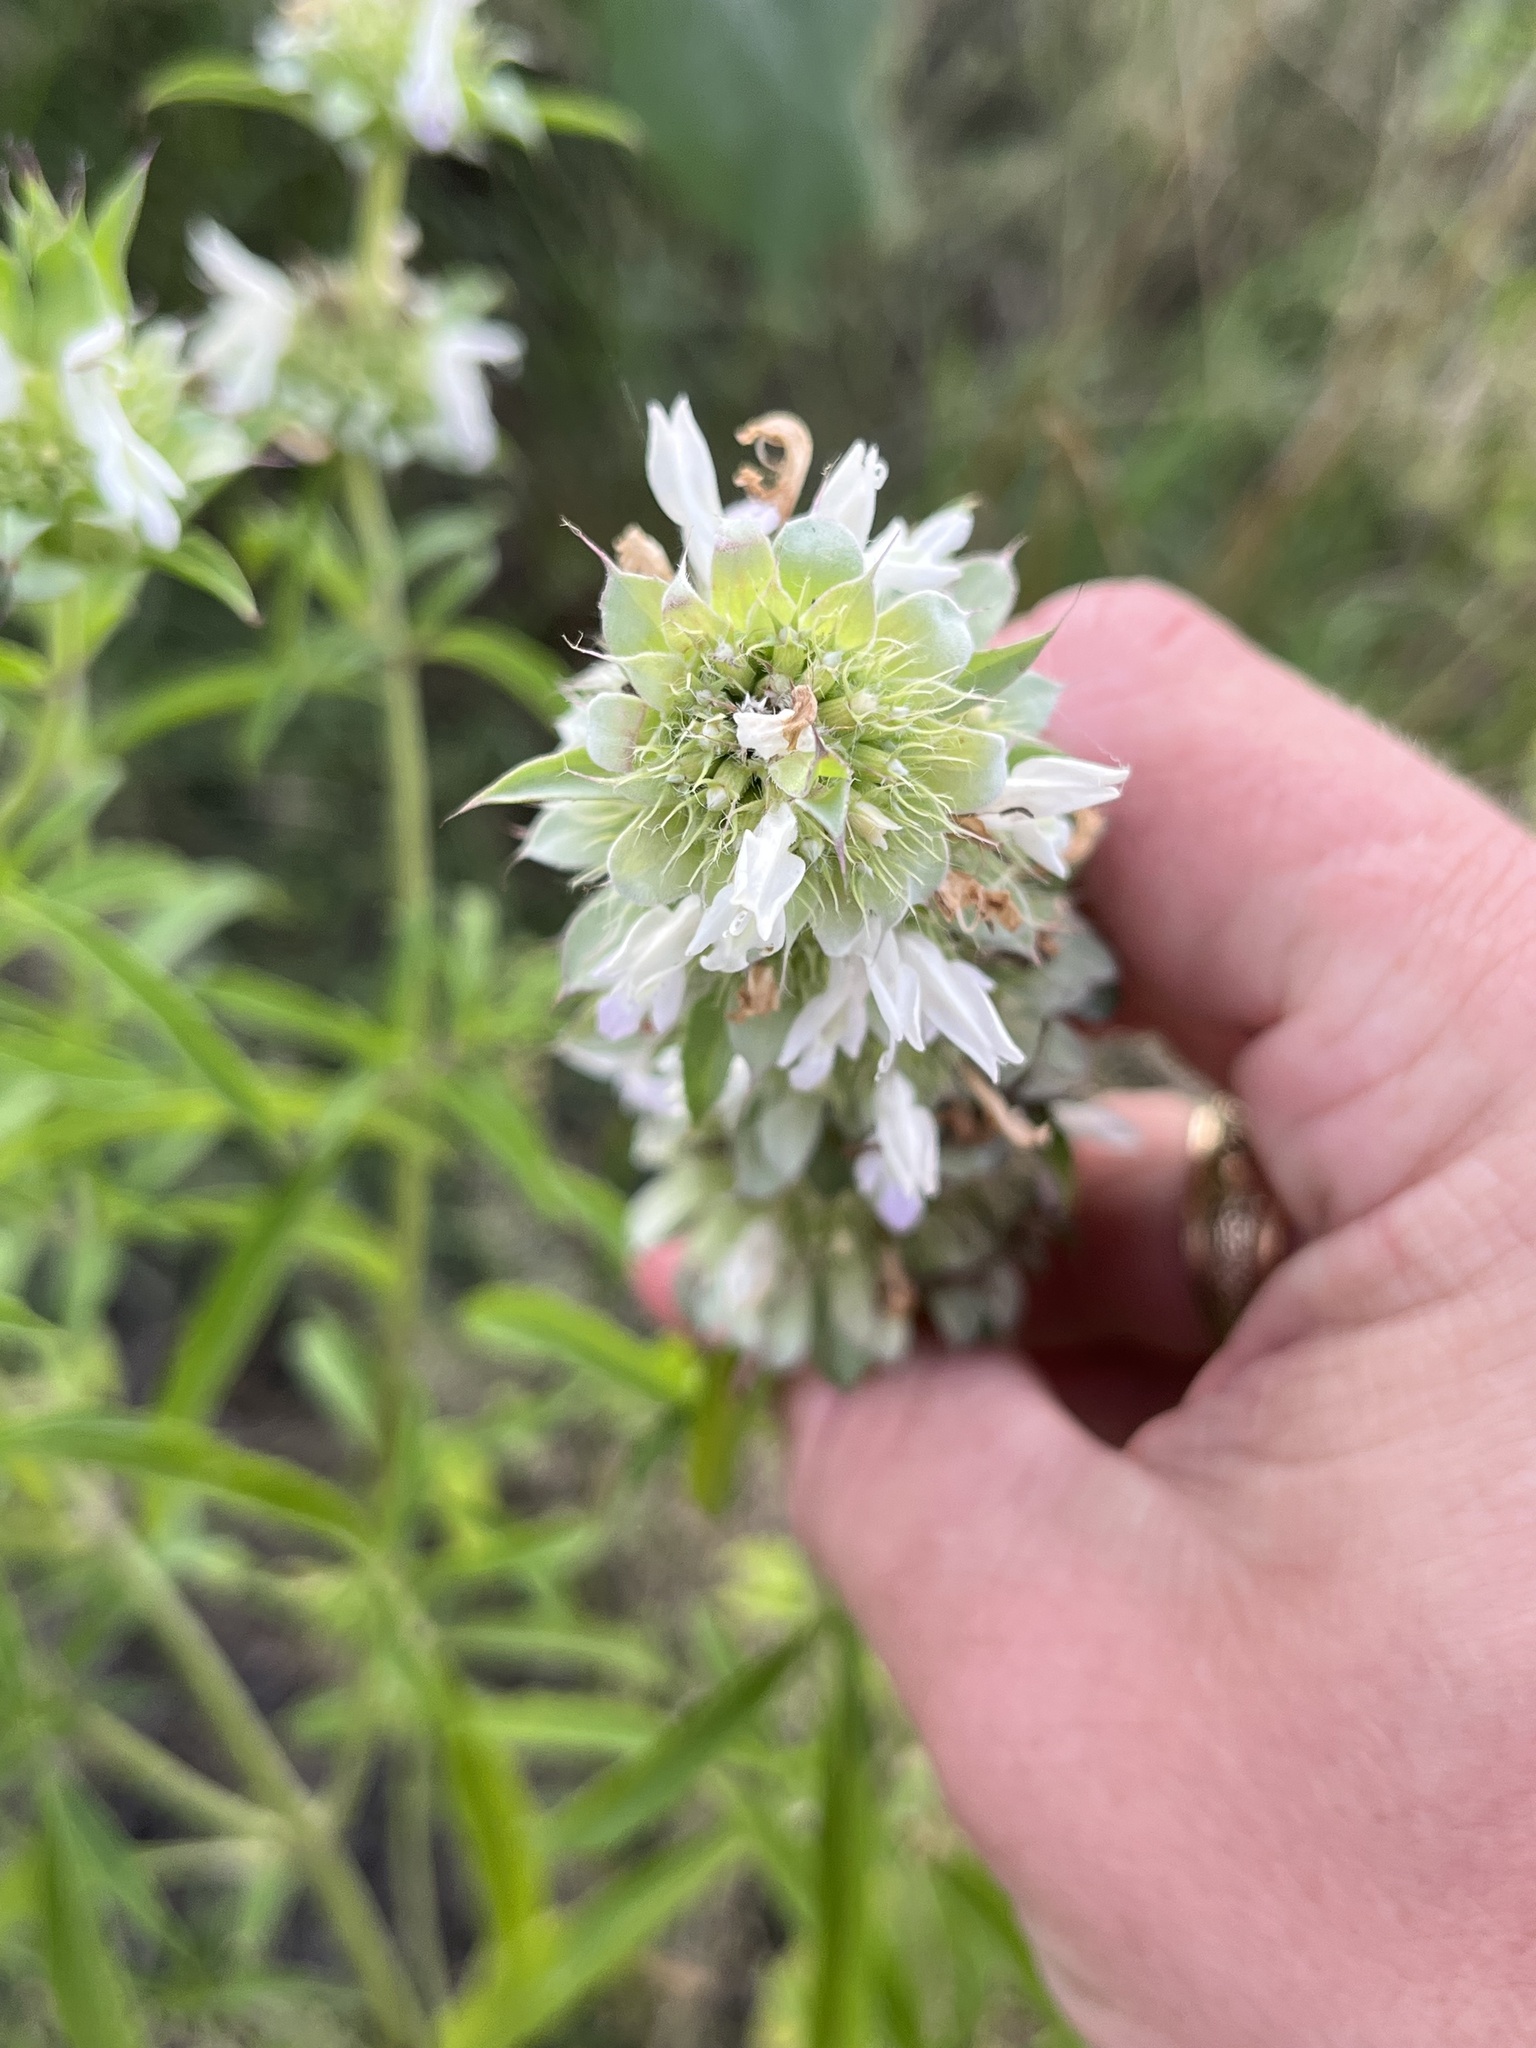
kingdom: Plantae
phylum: Tracheophyta
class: Magnoliopsida
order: Lamiales
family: Lamiaceae
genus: Monarda
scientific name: Monarda citriodora
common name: Lemon beebalm
